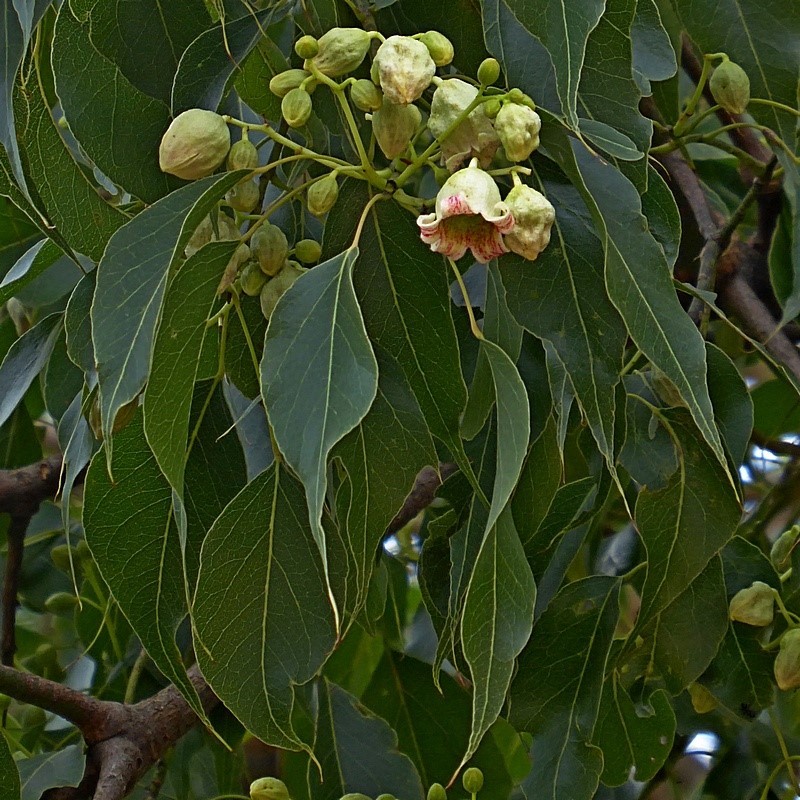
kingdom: Plantae
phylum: Tracheophyta
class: Magnoliopsida
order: Malvales
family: Malvaceae
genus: Brachychiton
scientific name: Brachychiton populneus
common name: Kurrajong
